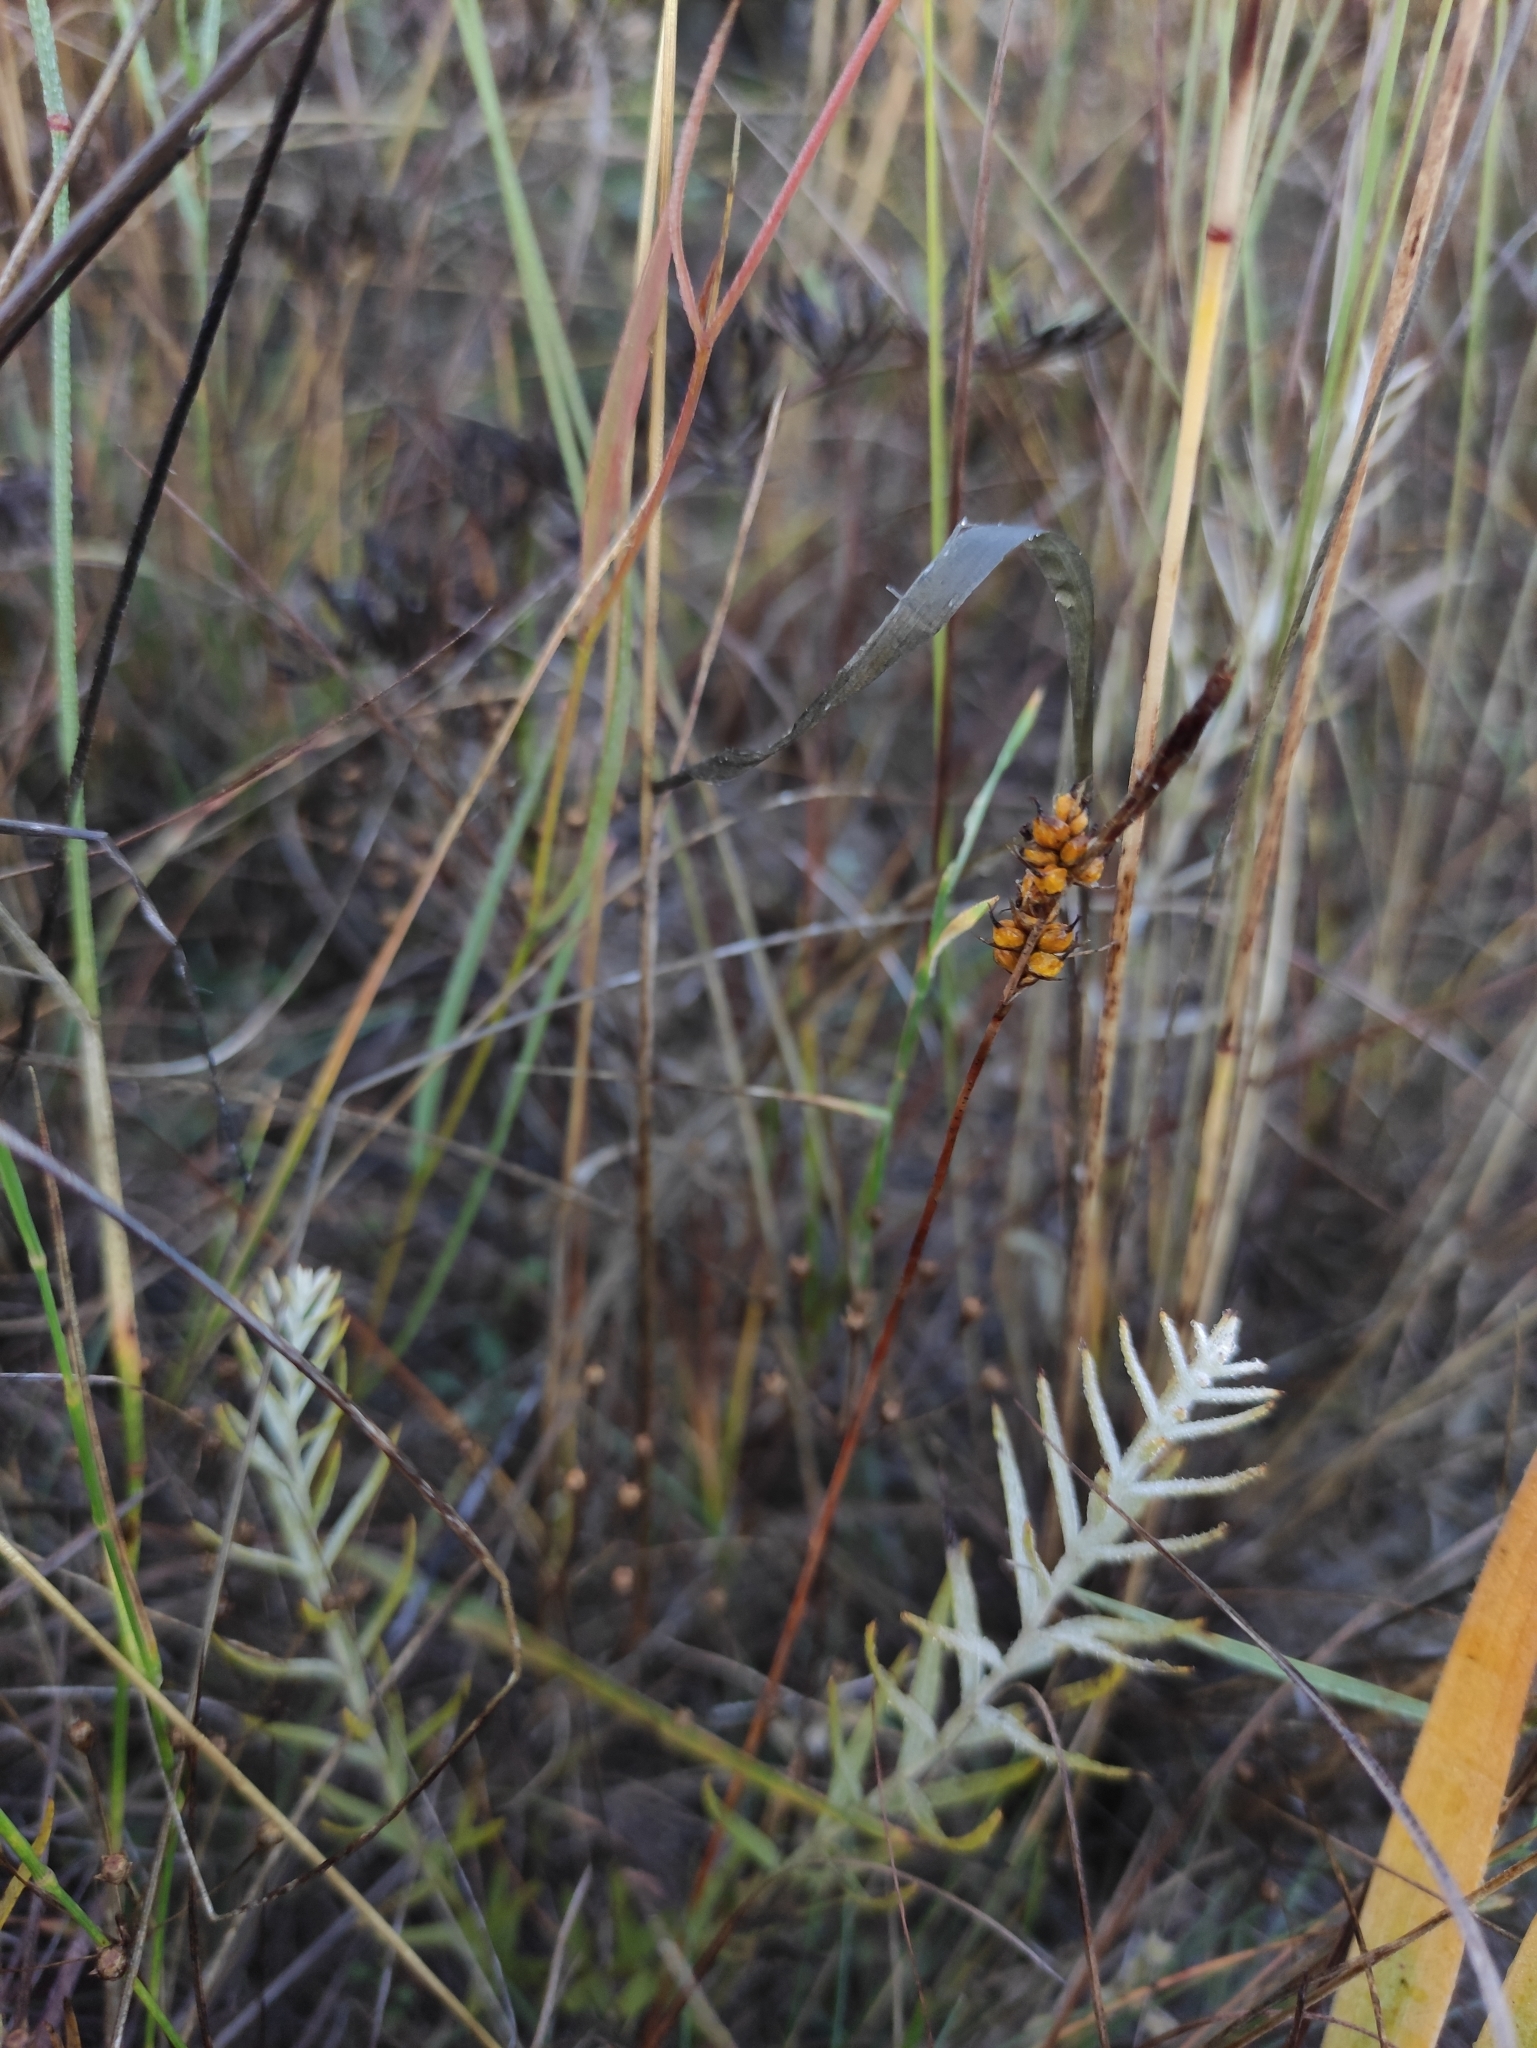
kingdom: Plantae
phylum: Tracheophyta
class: Liliopsida
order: Poales
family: Cyperaceae
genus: Carex
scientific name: Carex korshinskyi
